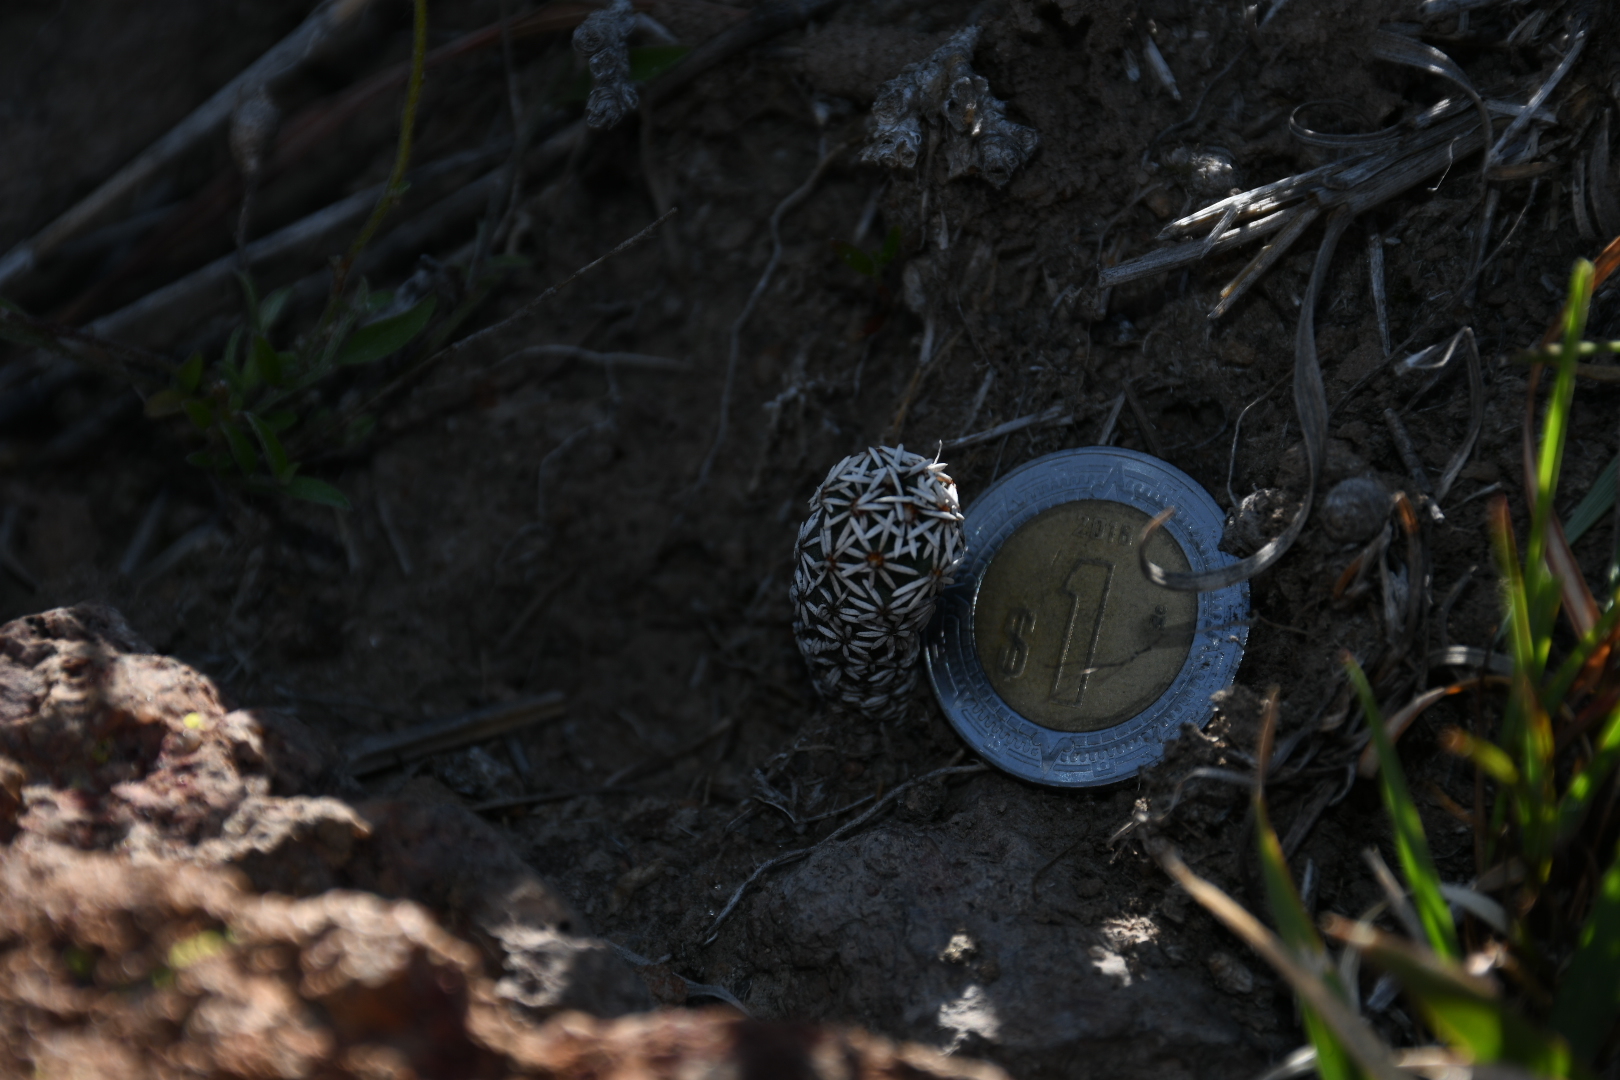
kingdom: Plantae
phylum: Tracheophyta
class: Magnoliopsida
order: Caryophyllales
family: Cactaceae
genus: Coryphantha
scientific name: Coryphantha clavata
